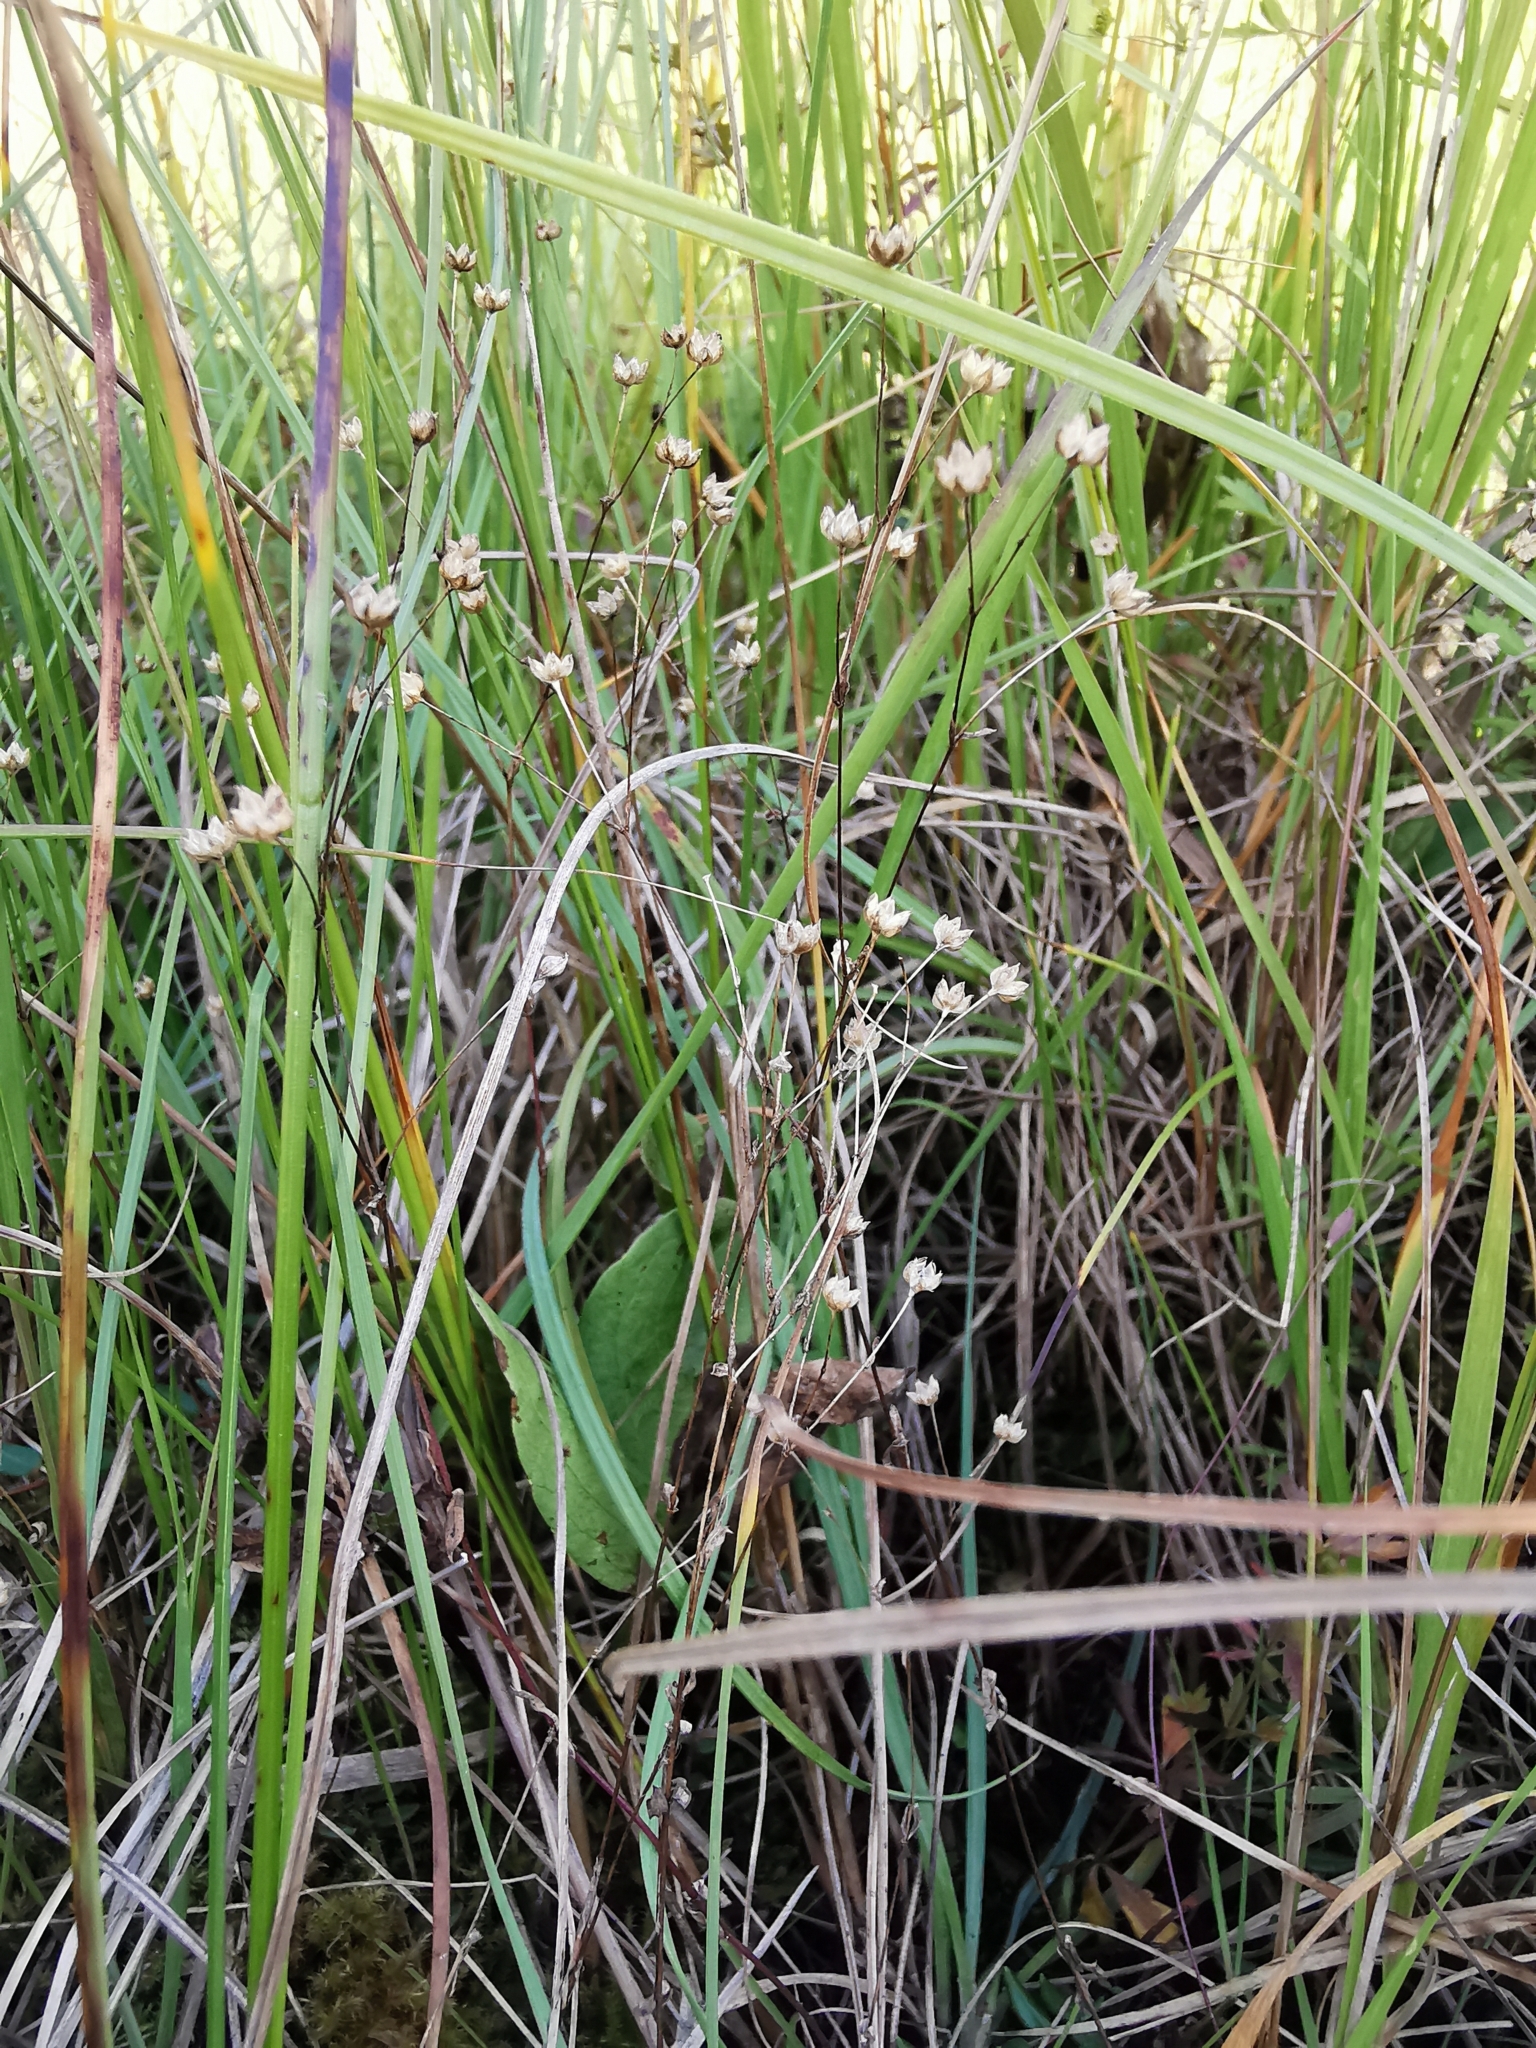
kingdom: Plantae
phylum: Tracheophyta
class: Magnoliopsida
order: Malpighiales
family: Linaceae
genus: Linum
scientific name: Linum catharticum
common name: Fairy flax
